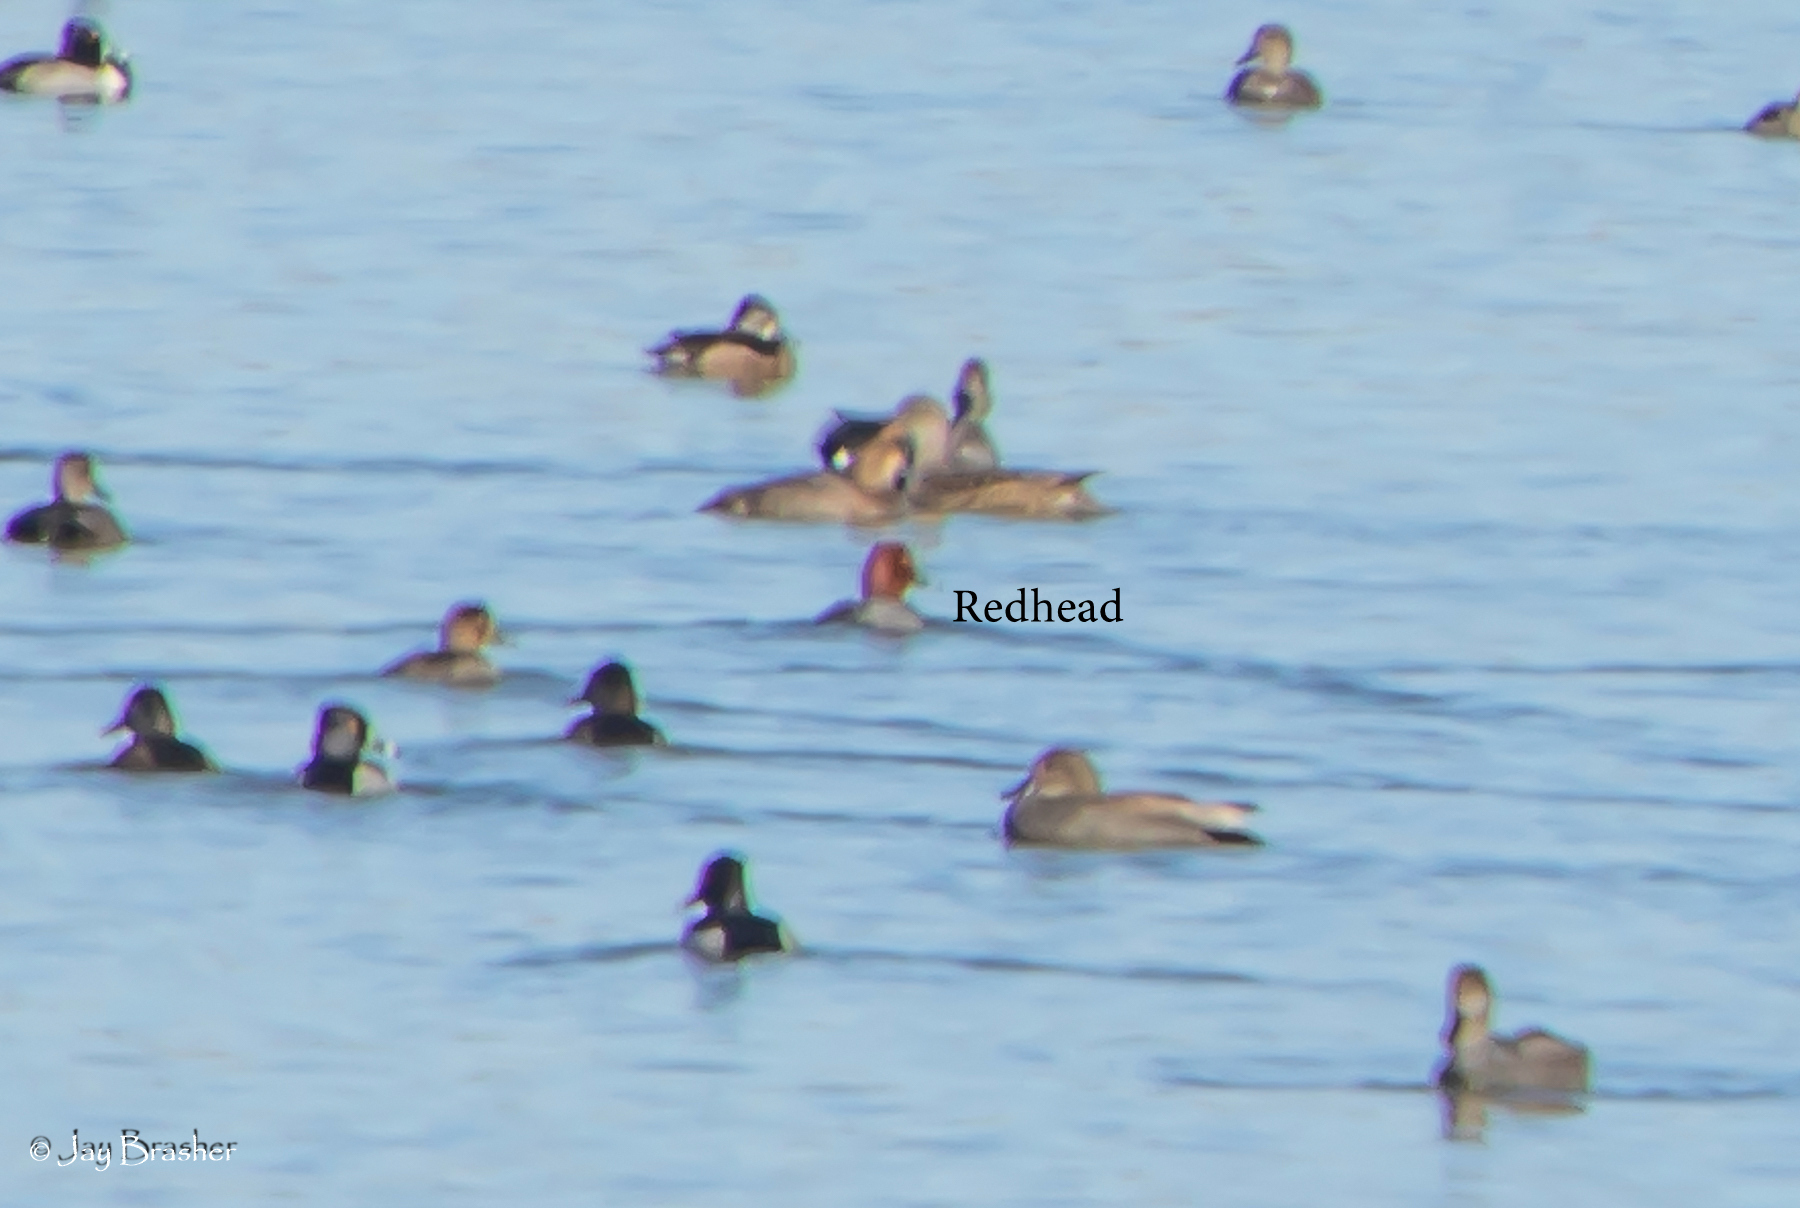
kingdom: Animalia
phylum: Chordata
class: Aves
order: Anseriformes
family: Anatidae
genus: Aythya
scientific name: Aythya americana
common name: Redhead
